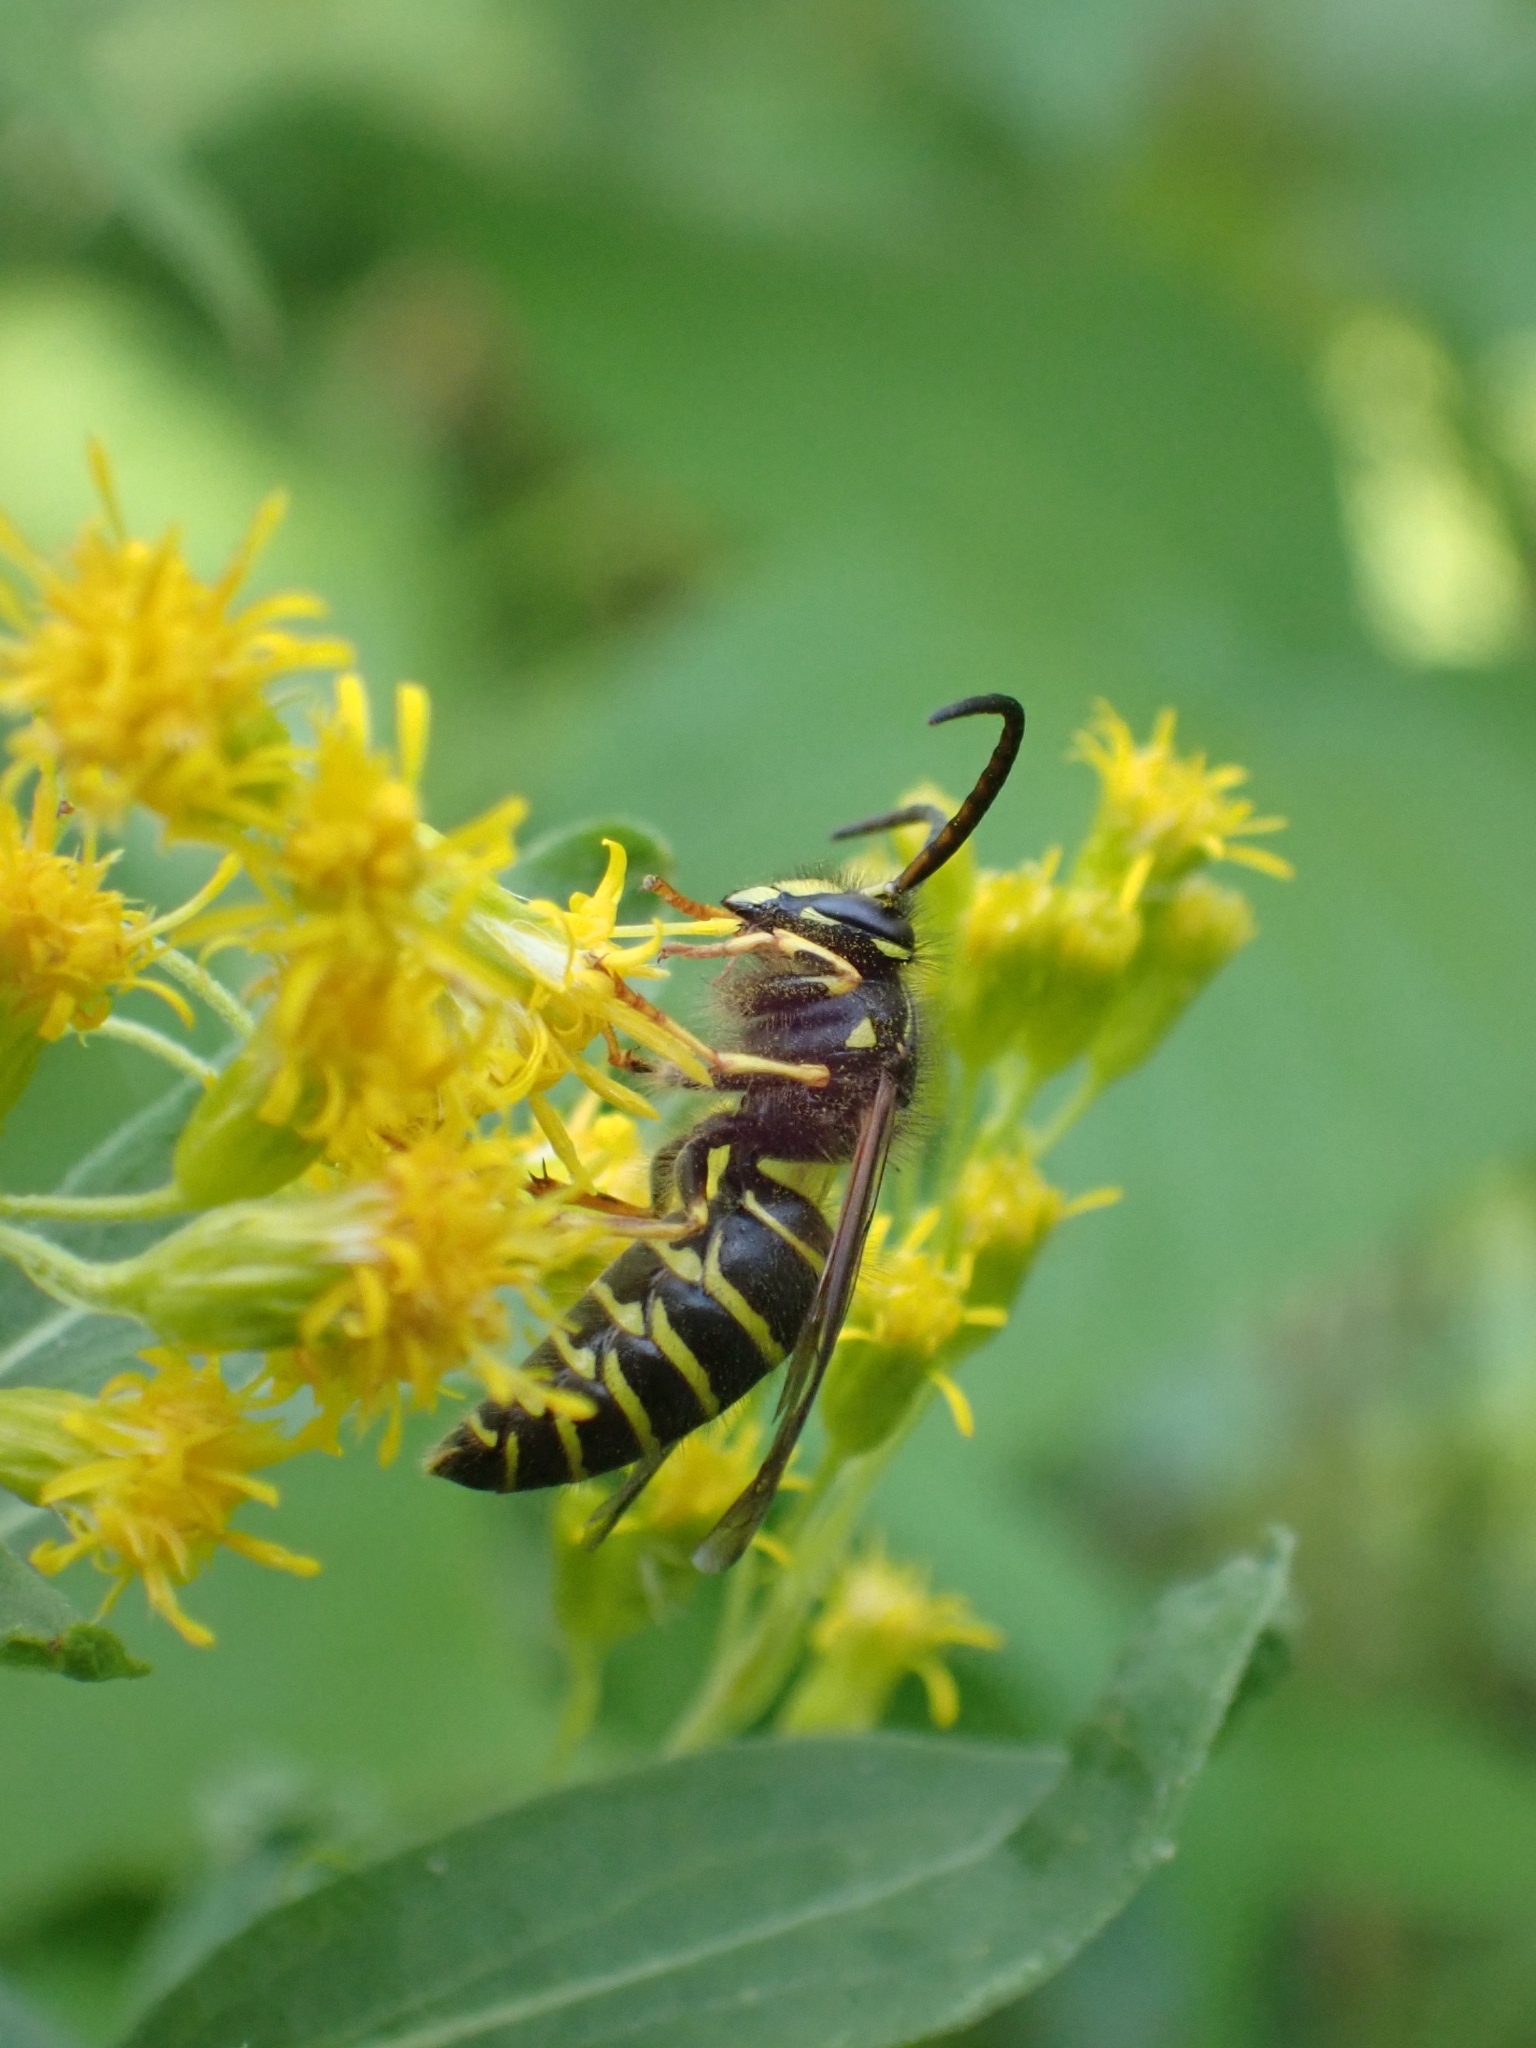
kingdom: Animalia
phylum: Arthropoda
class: Insecta
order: Hymenoptera
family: Vespidae
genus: Dolichovespula
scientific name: Dolichovespula norvegicoides
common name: Northern aerial yellowjacket
